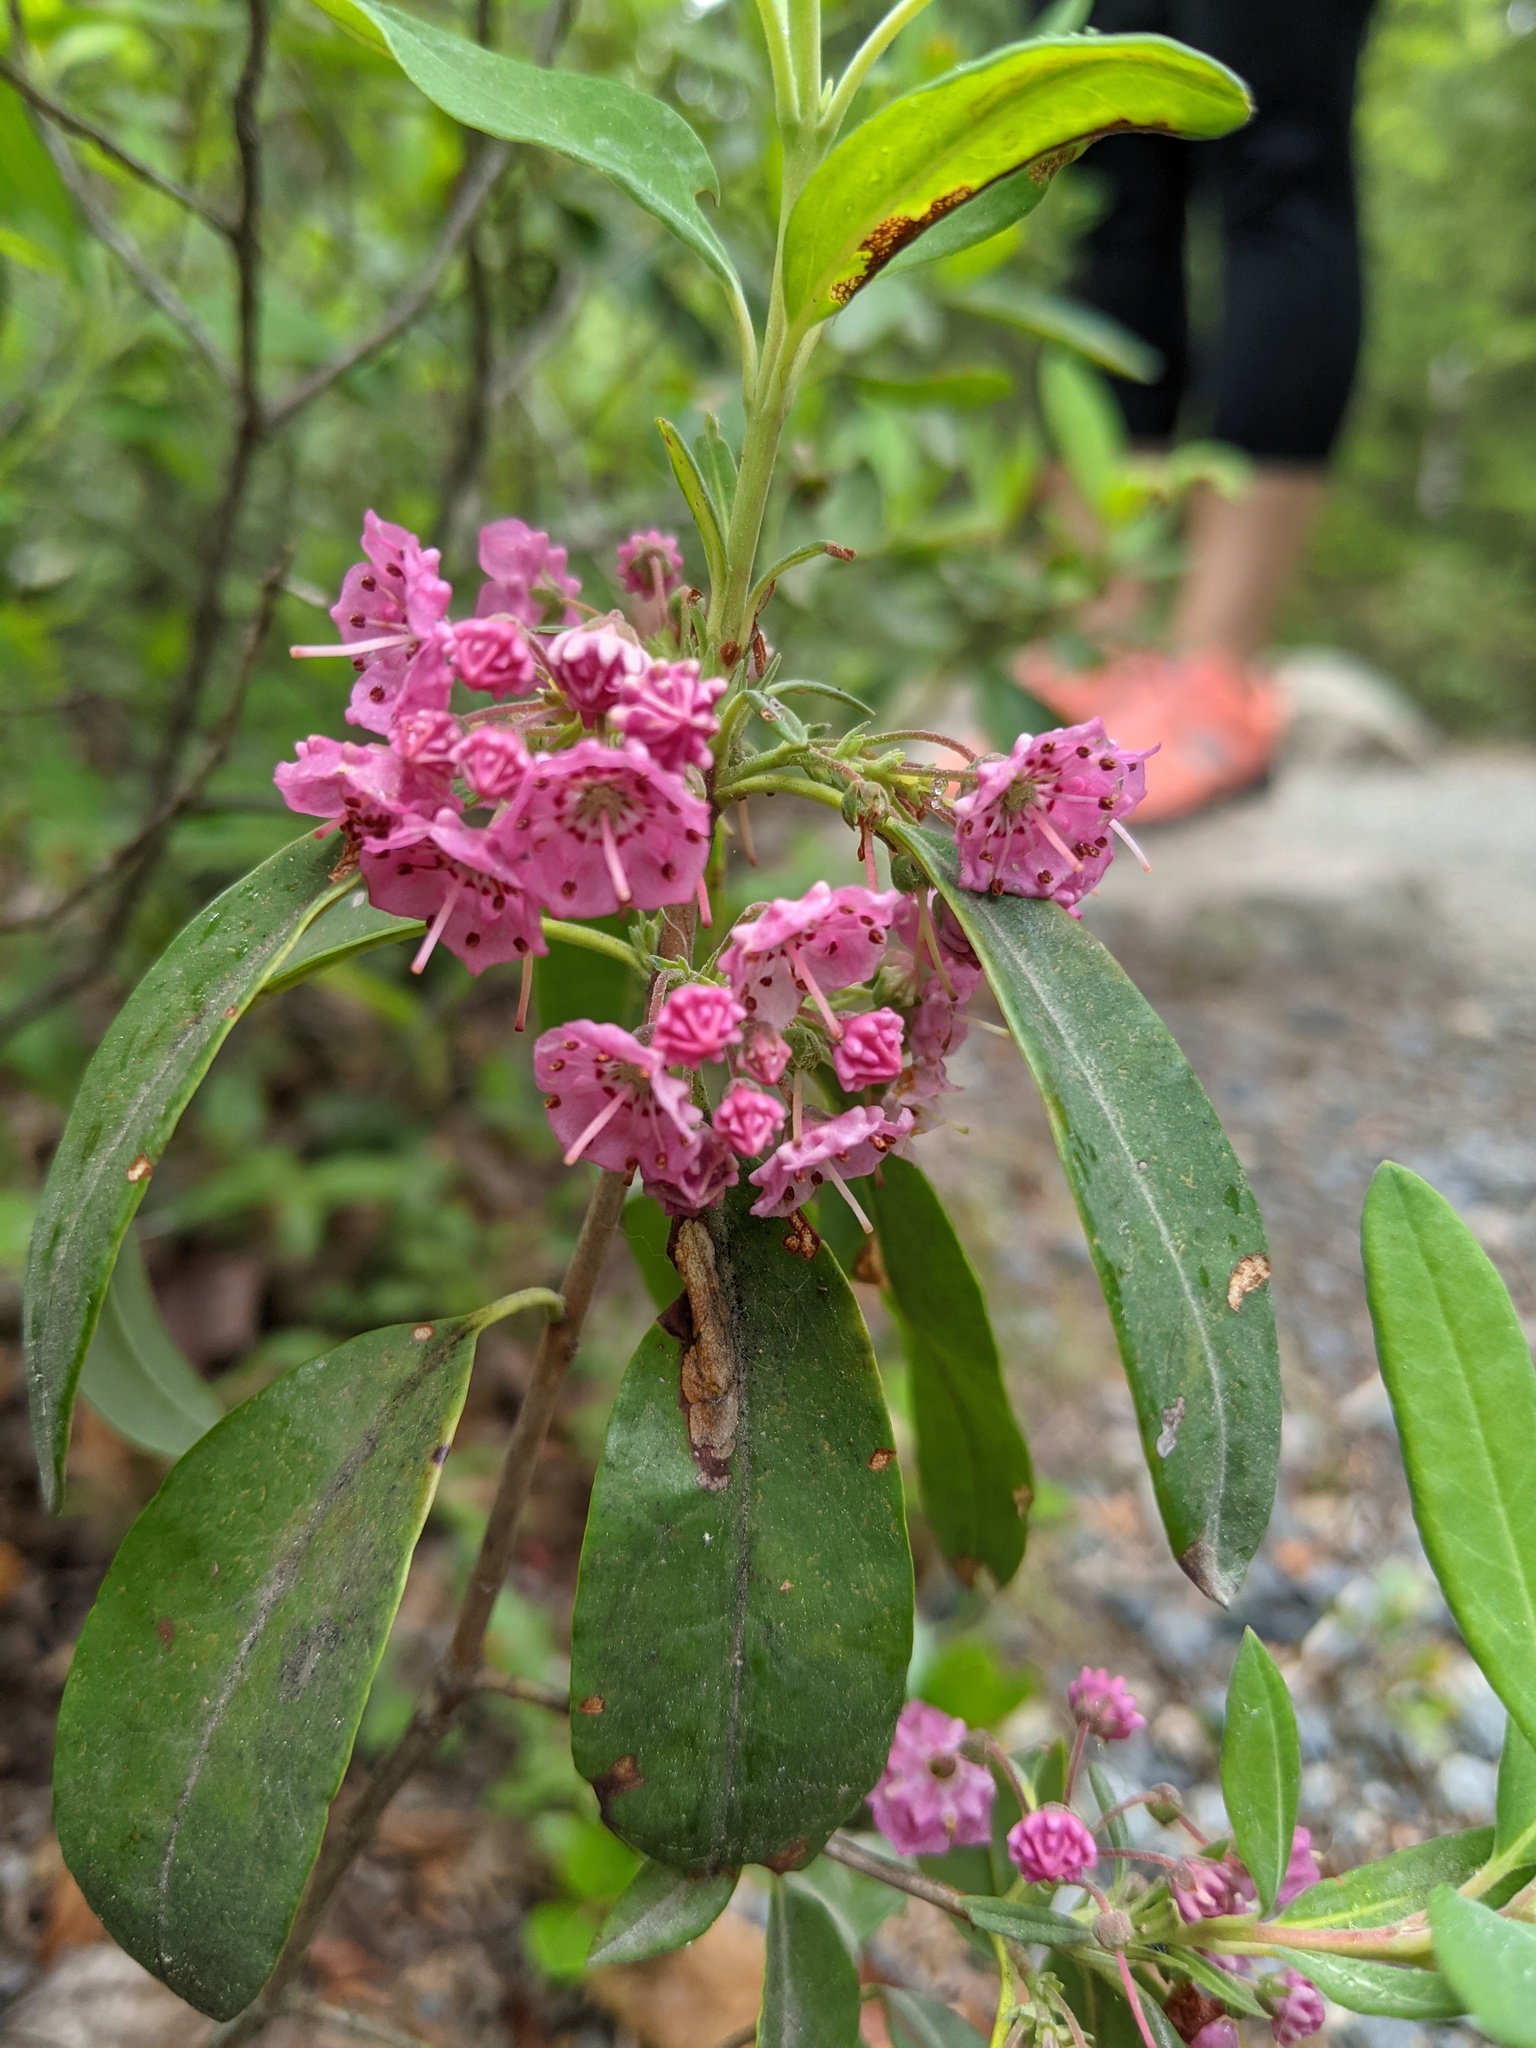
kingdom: Plantae
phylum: Tracheophyta
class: Magnoliopsida
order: Ericales
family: Ericaceae
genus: Kalmia
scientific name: Kalmia angustifolia
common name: Sheep-laurel
